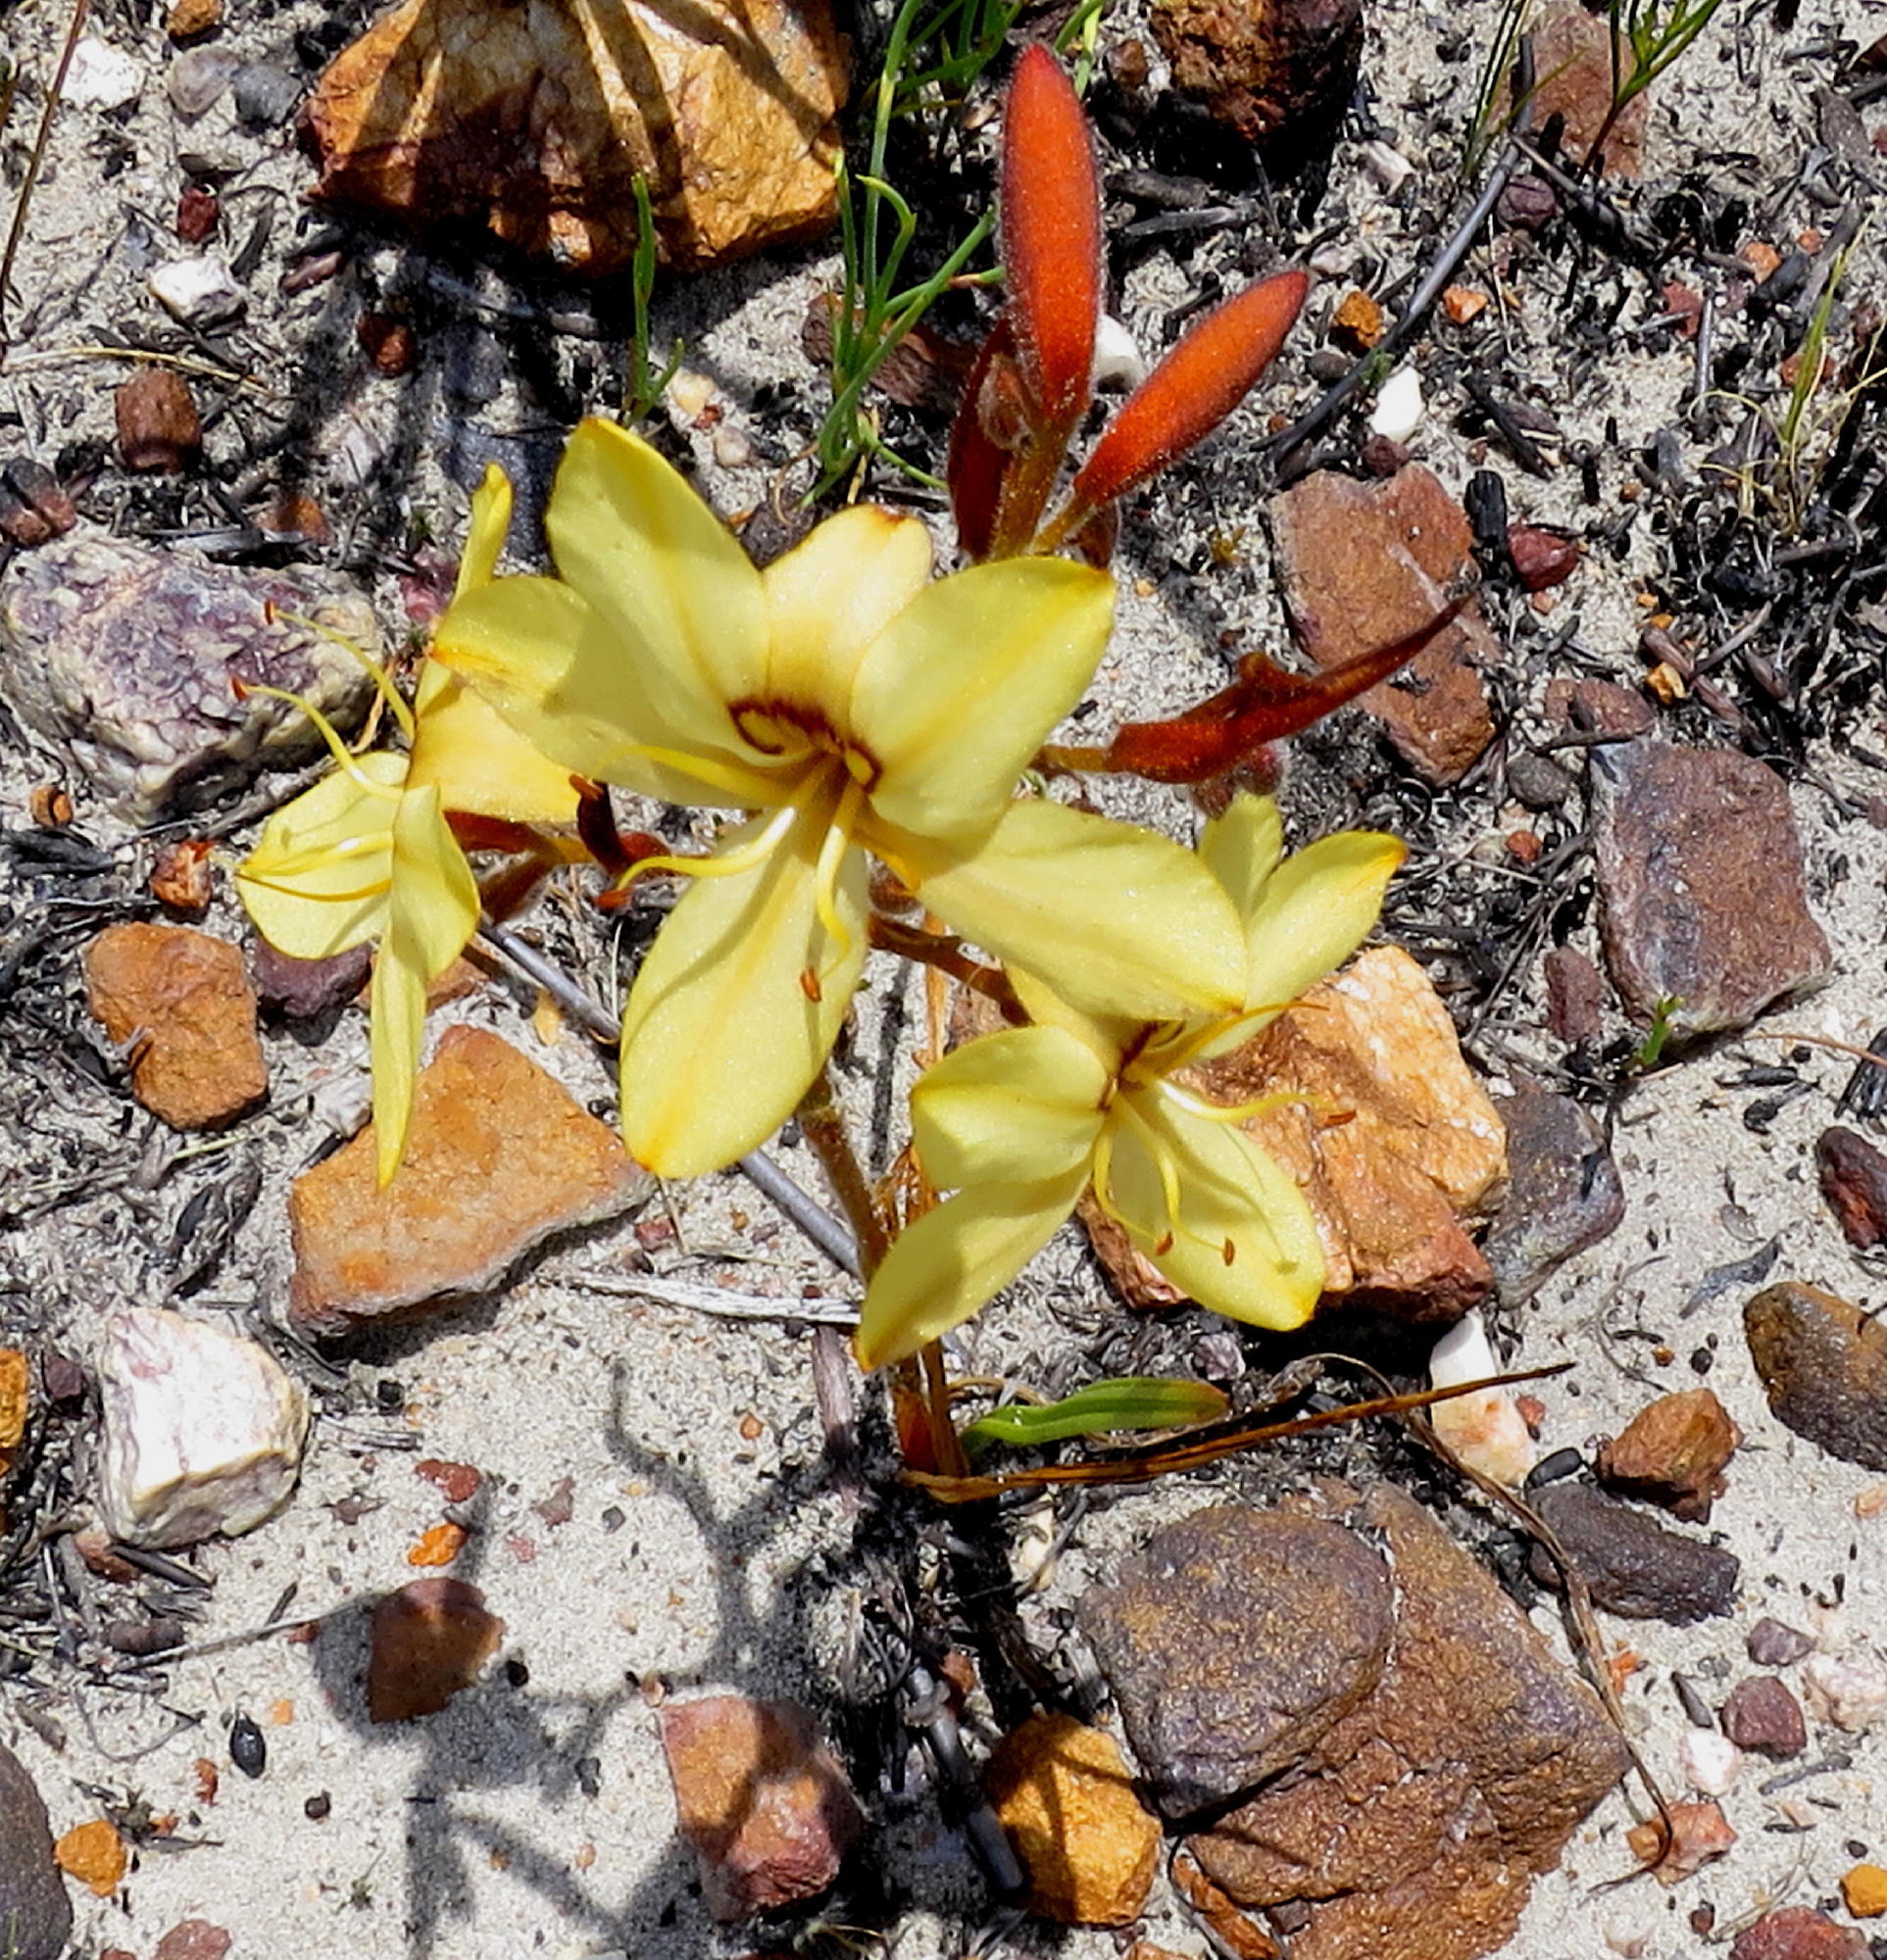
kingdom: Plantae
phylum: Tracheophyta
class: Liliopsida
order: Commelinales
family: Haemodoraceae
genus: Wachendorfia
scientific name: Wachendorfia paniculata
